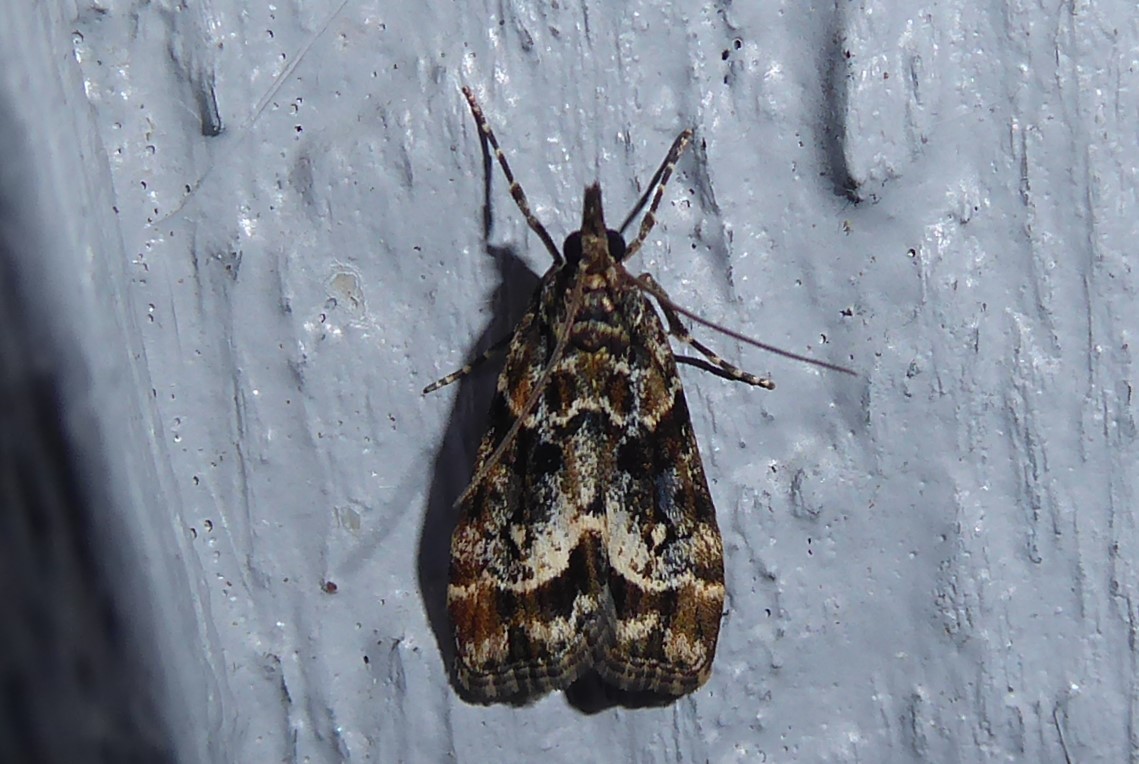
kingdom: Animalia
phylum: Arthropoda
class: Insecta
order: Lepidoptera
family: Crambidae
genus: Eudonia
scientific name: Eudonia legnota
